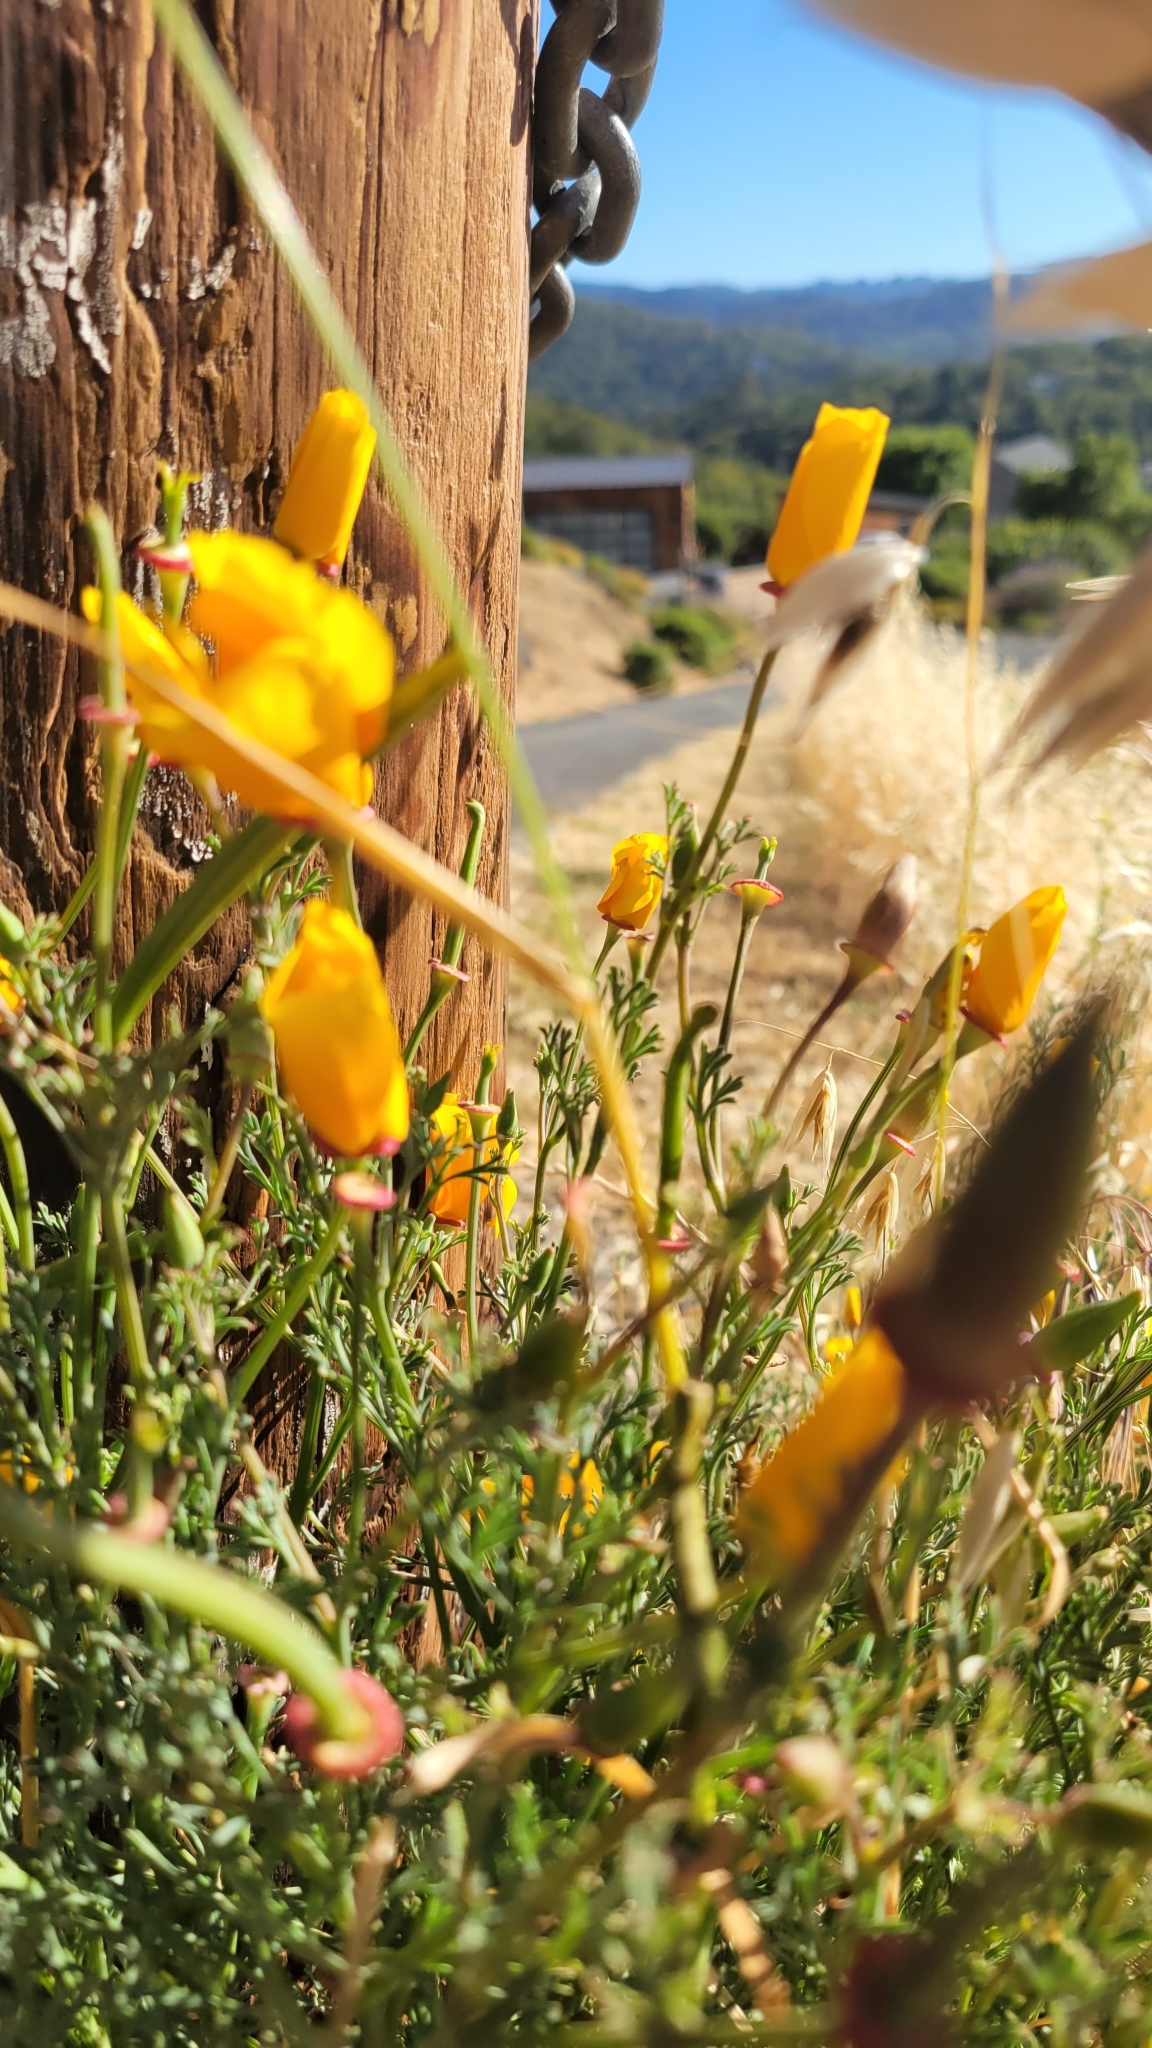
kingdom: Plantae
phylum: Tracheophyta
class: Magnoliopsida
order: Ranunculales
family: Papaveraceae
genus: Eschscholzia
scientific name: Eschscholzia californica
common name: California poppy
